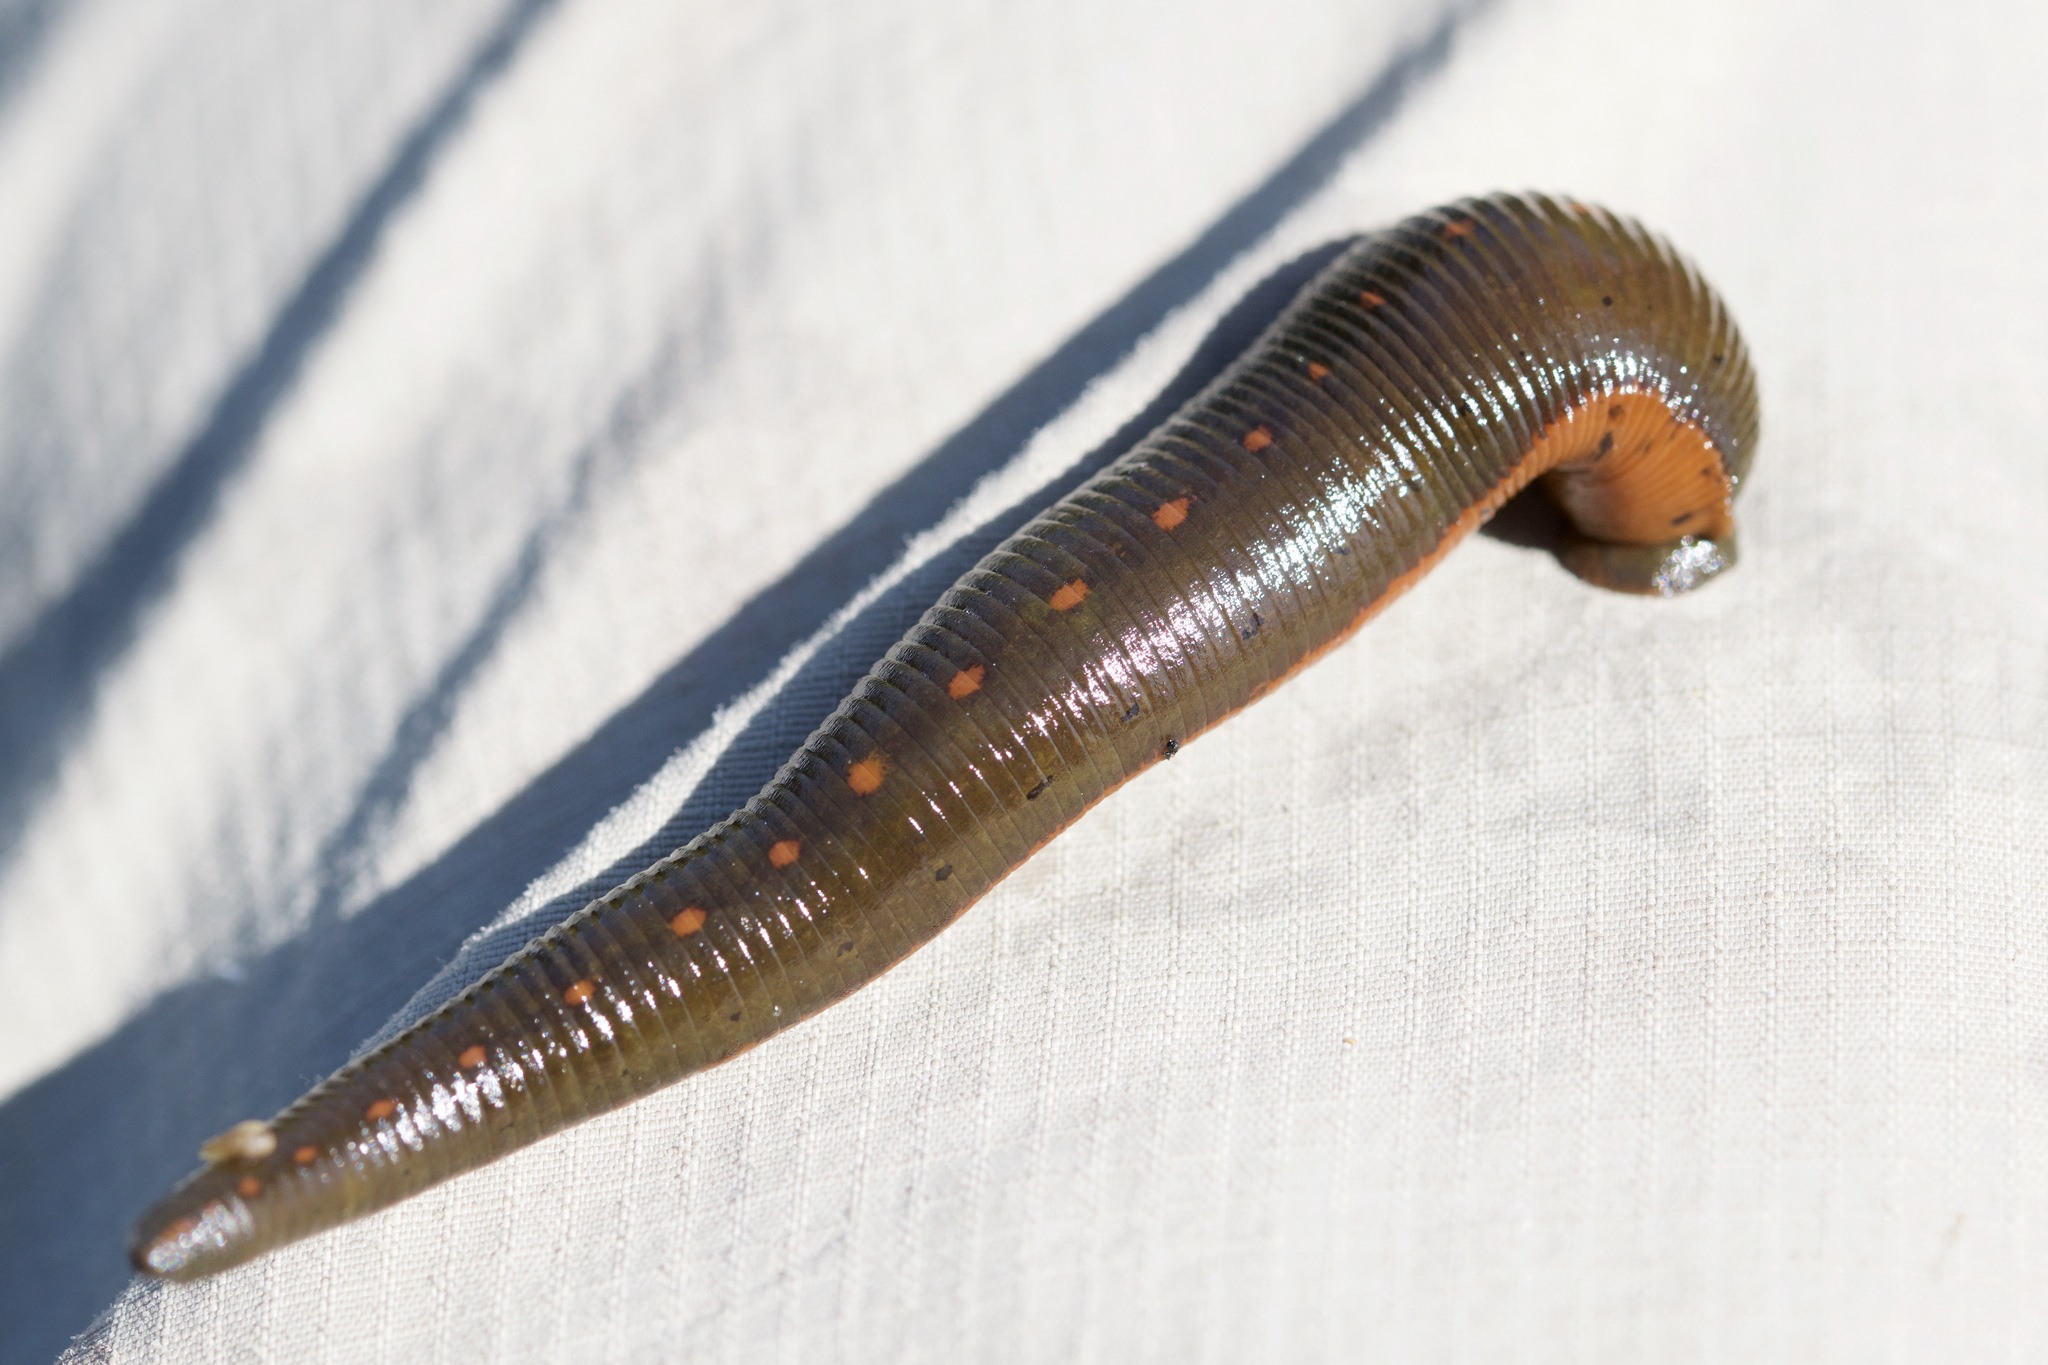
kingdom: Animalia
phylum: Annelida
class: Clitellata
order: Arhynchobdellida
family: Hirudinidae
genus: Macrobdella
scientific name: Macrobdella decora
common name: North american leech
